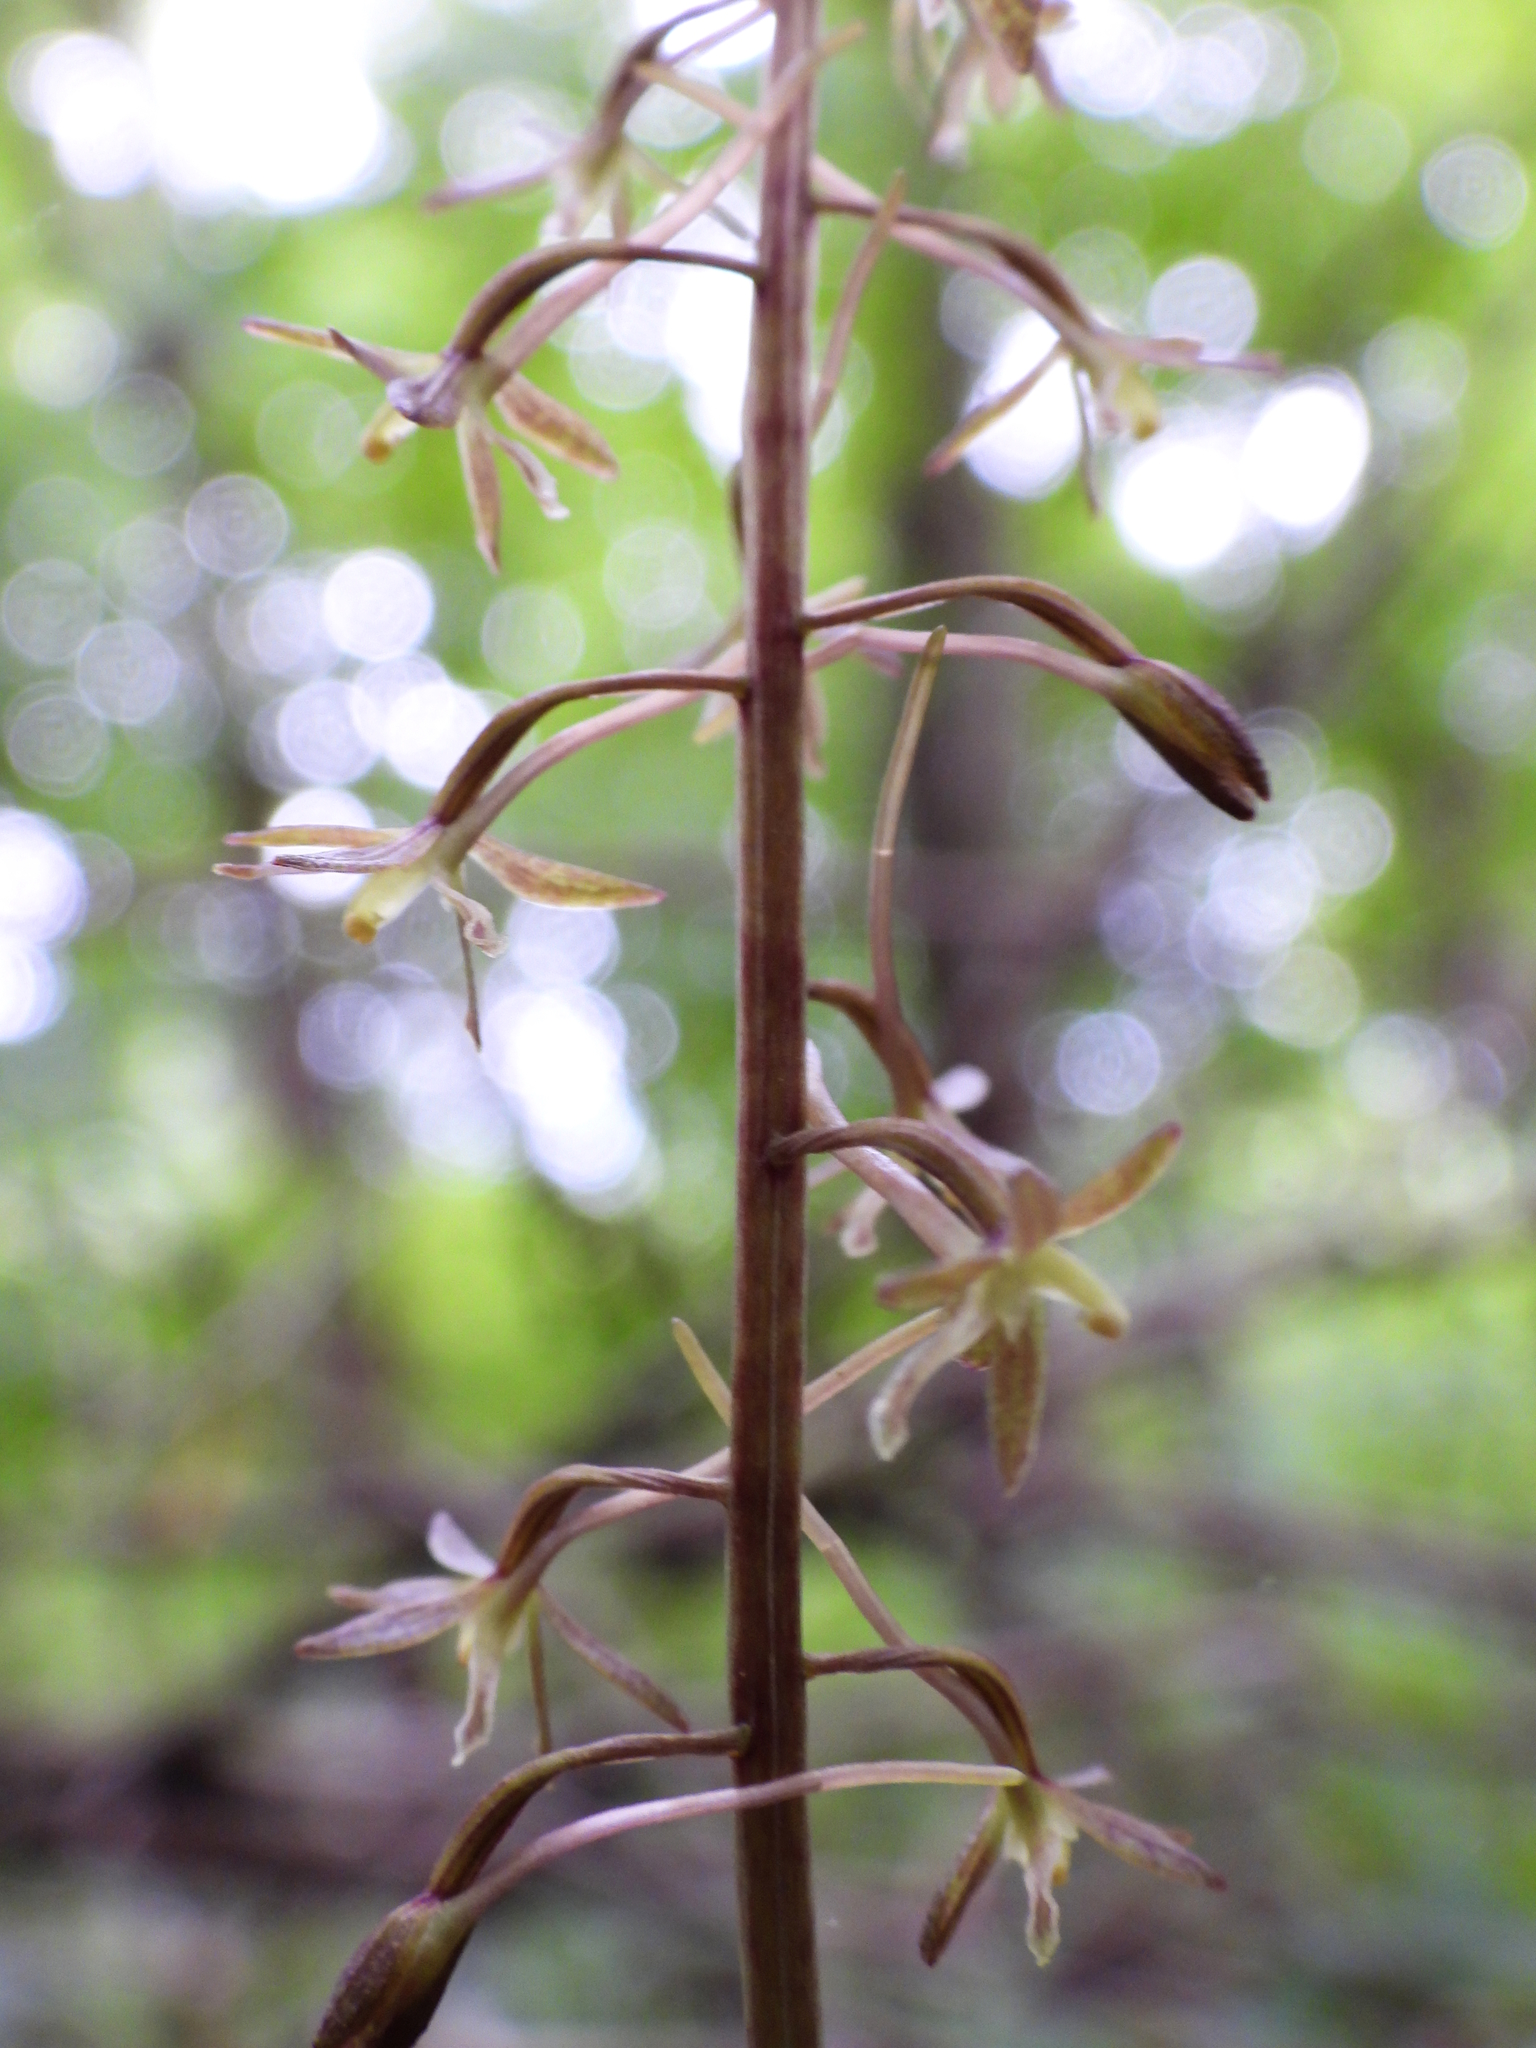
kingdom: Plantae
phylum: Tracheophyta
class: Liliopsida
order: Asparagales
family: Orchidaceae
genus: Tipularia
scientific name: Tipularia discolor
